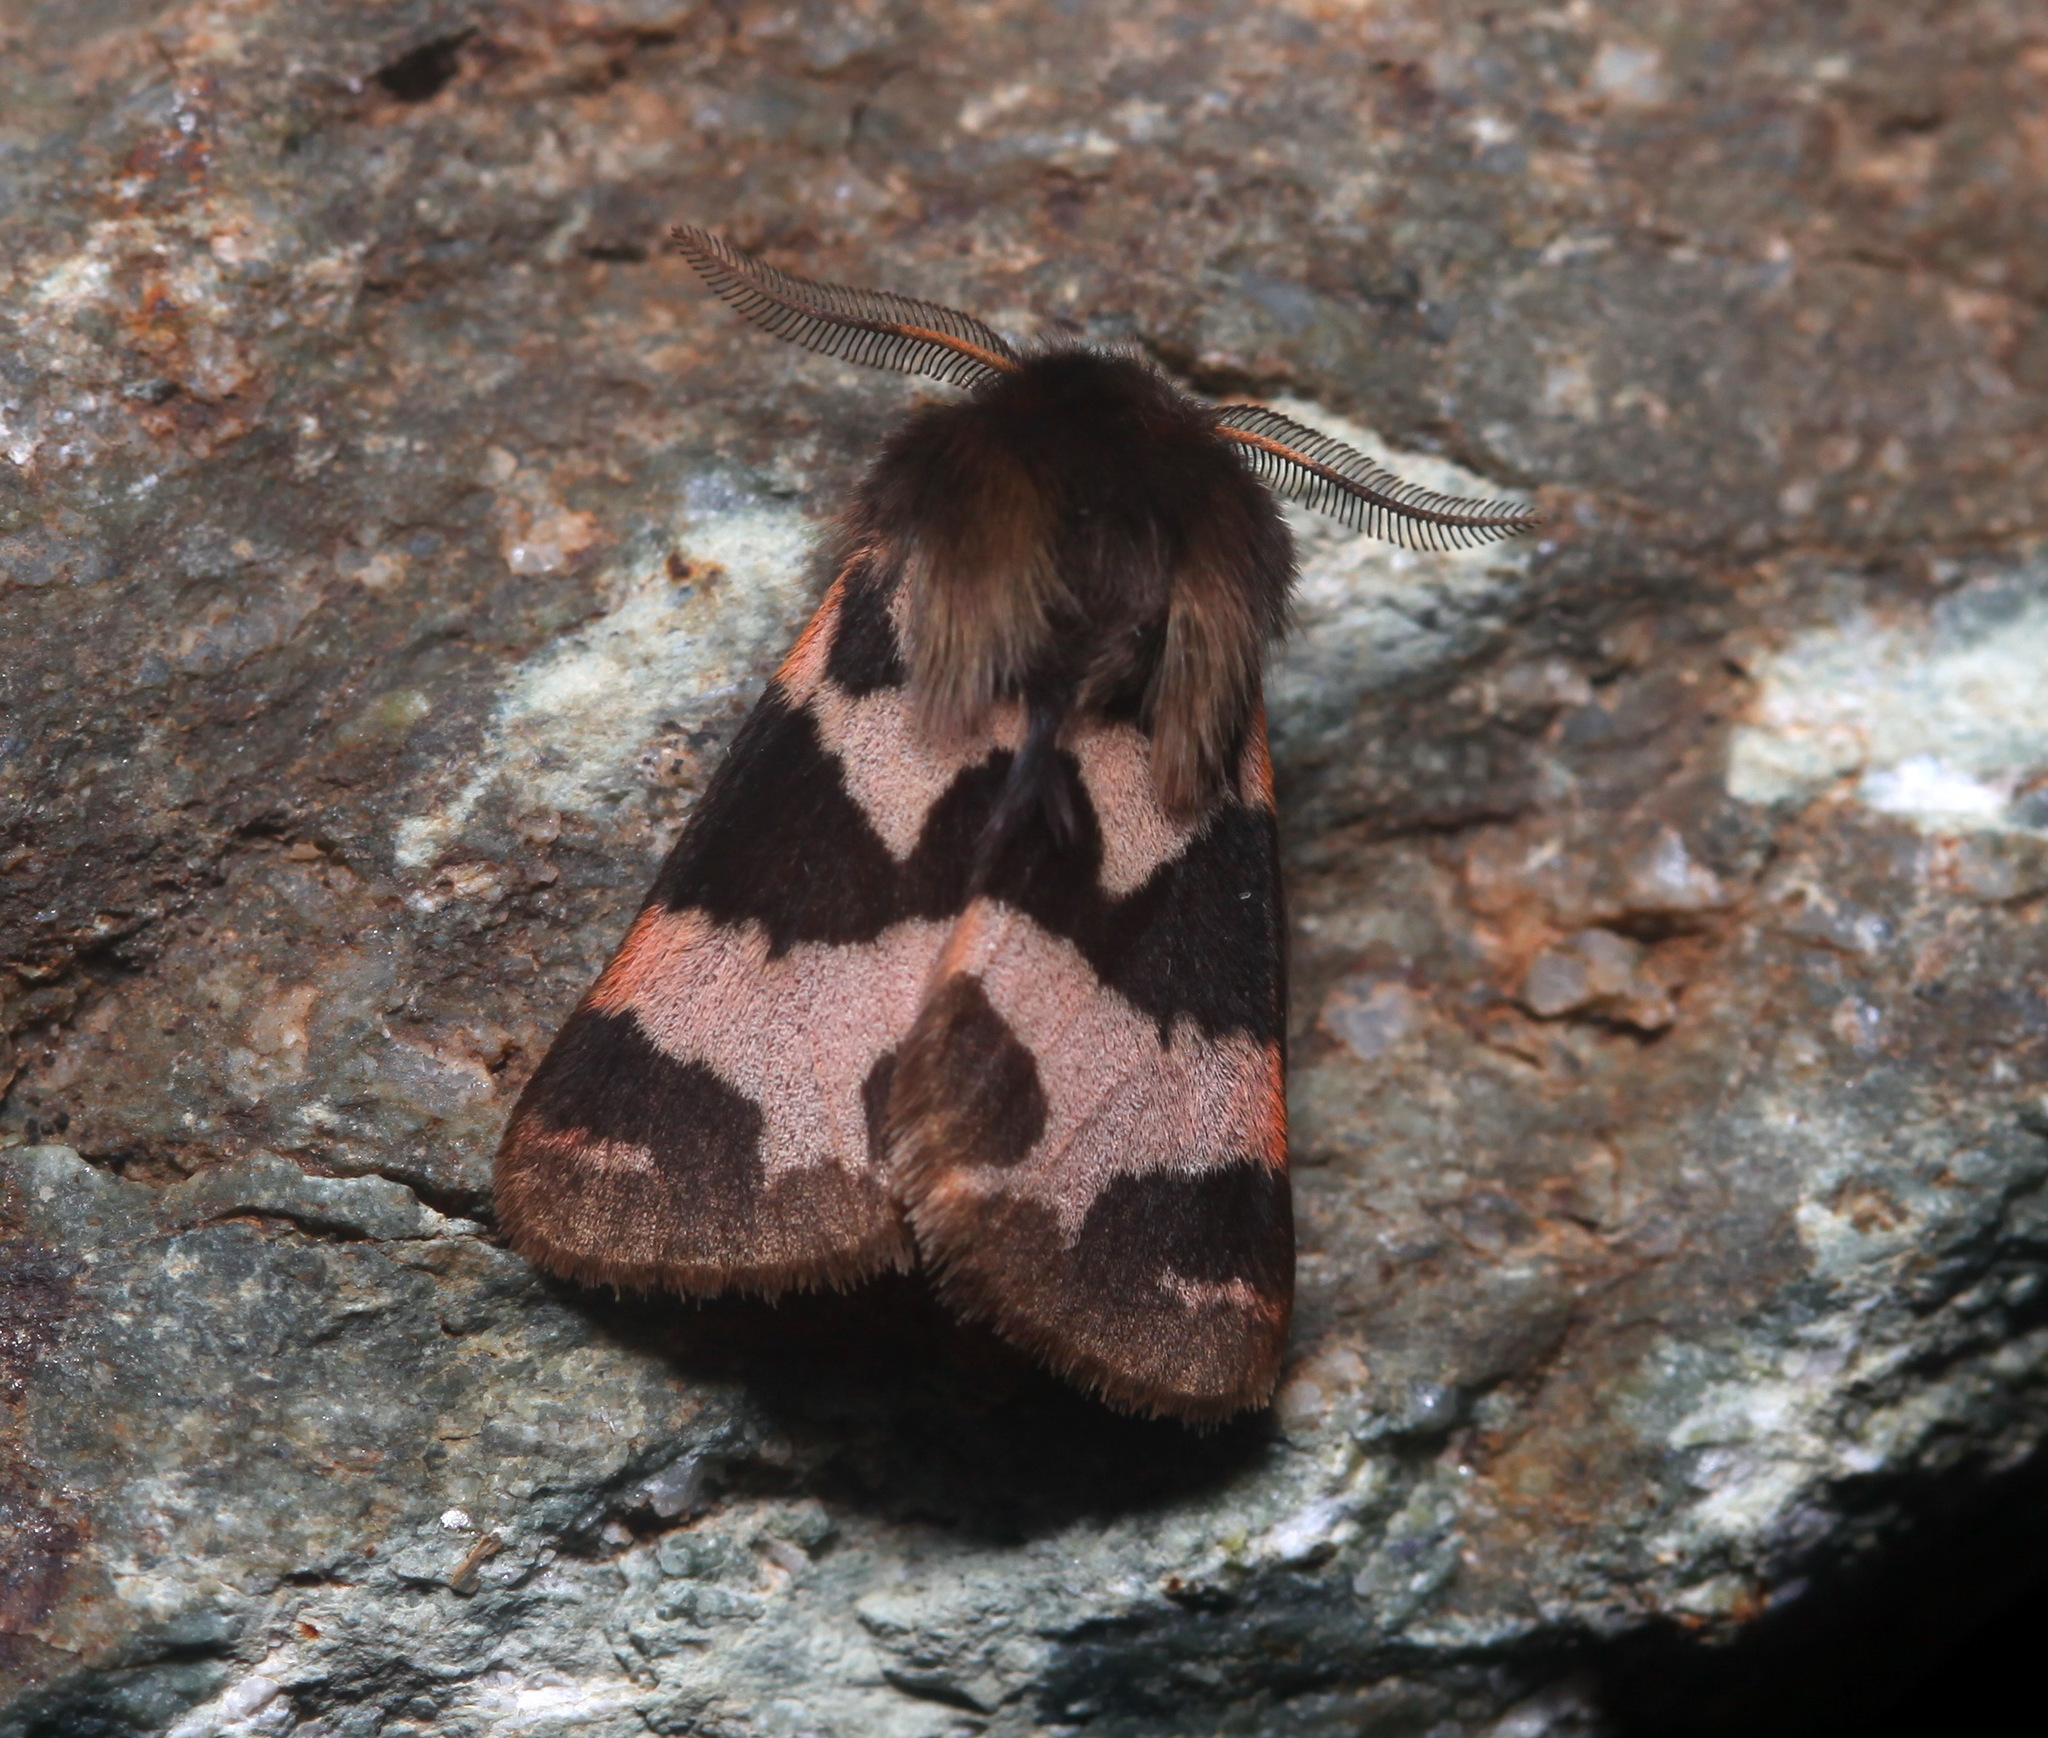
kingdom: Animalia
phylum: Arthropoda
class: Insecta
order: Lepidoptera
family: Erebidae
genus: Watsonarctia
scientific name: Watsonarctia deserta
